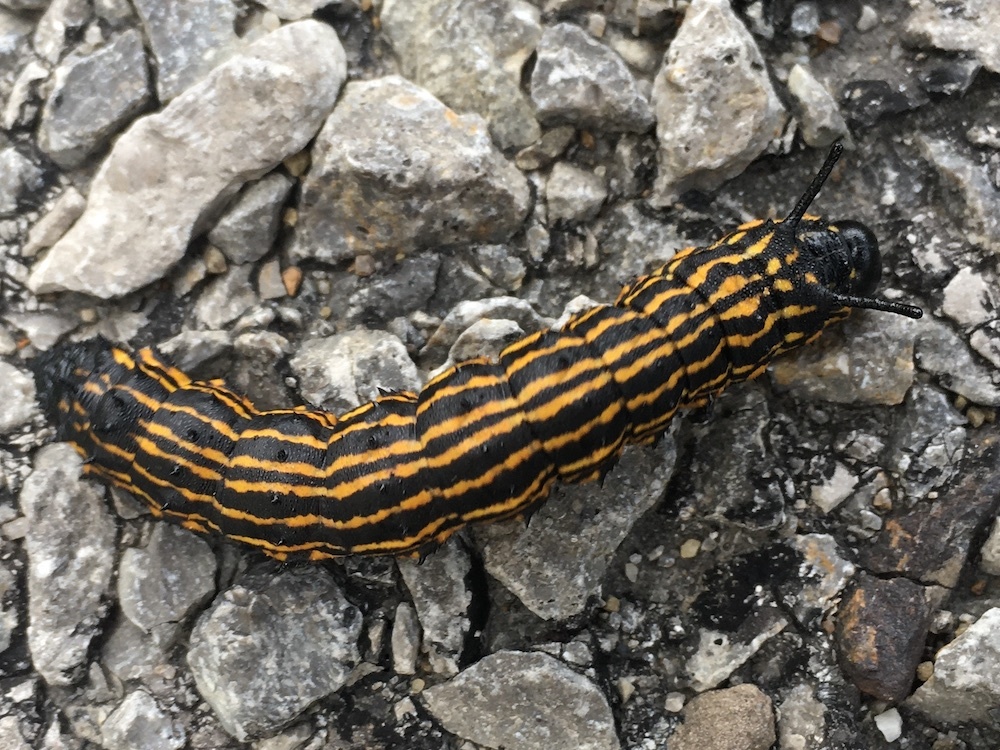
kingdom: Animalia
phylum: Arthropoda
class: Insecta
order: Lepidoptera
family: Saturniidae
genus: Anisota
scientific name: Anisota senatoria
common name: Orange-striped oakworm moth
